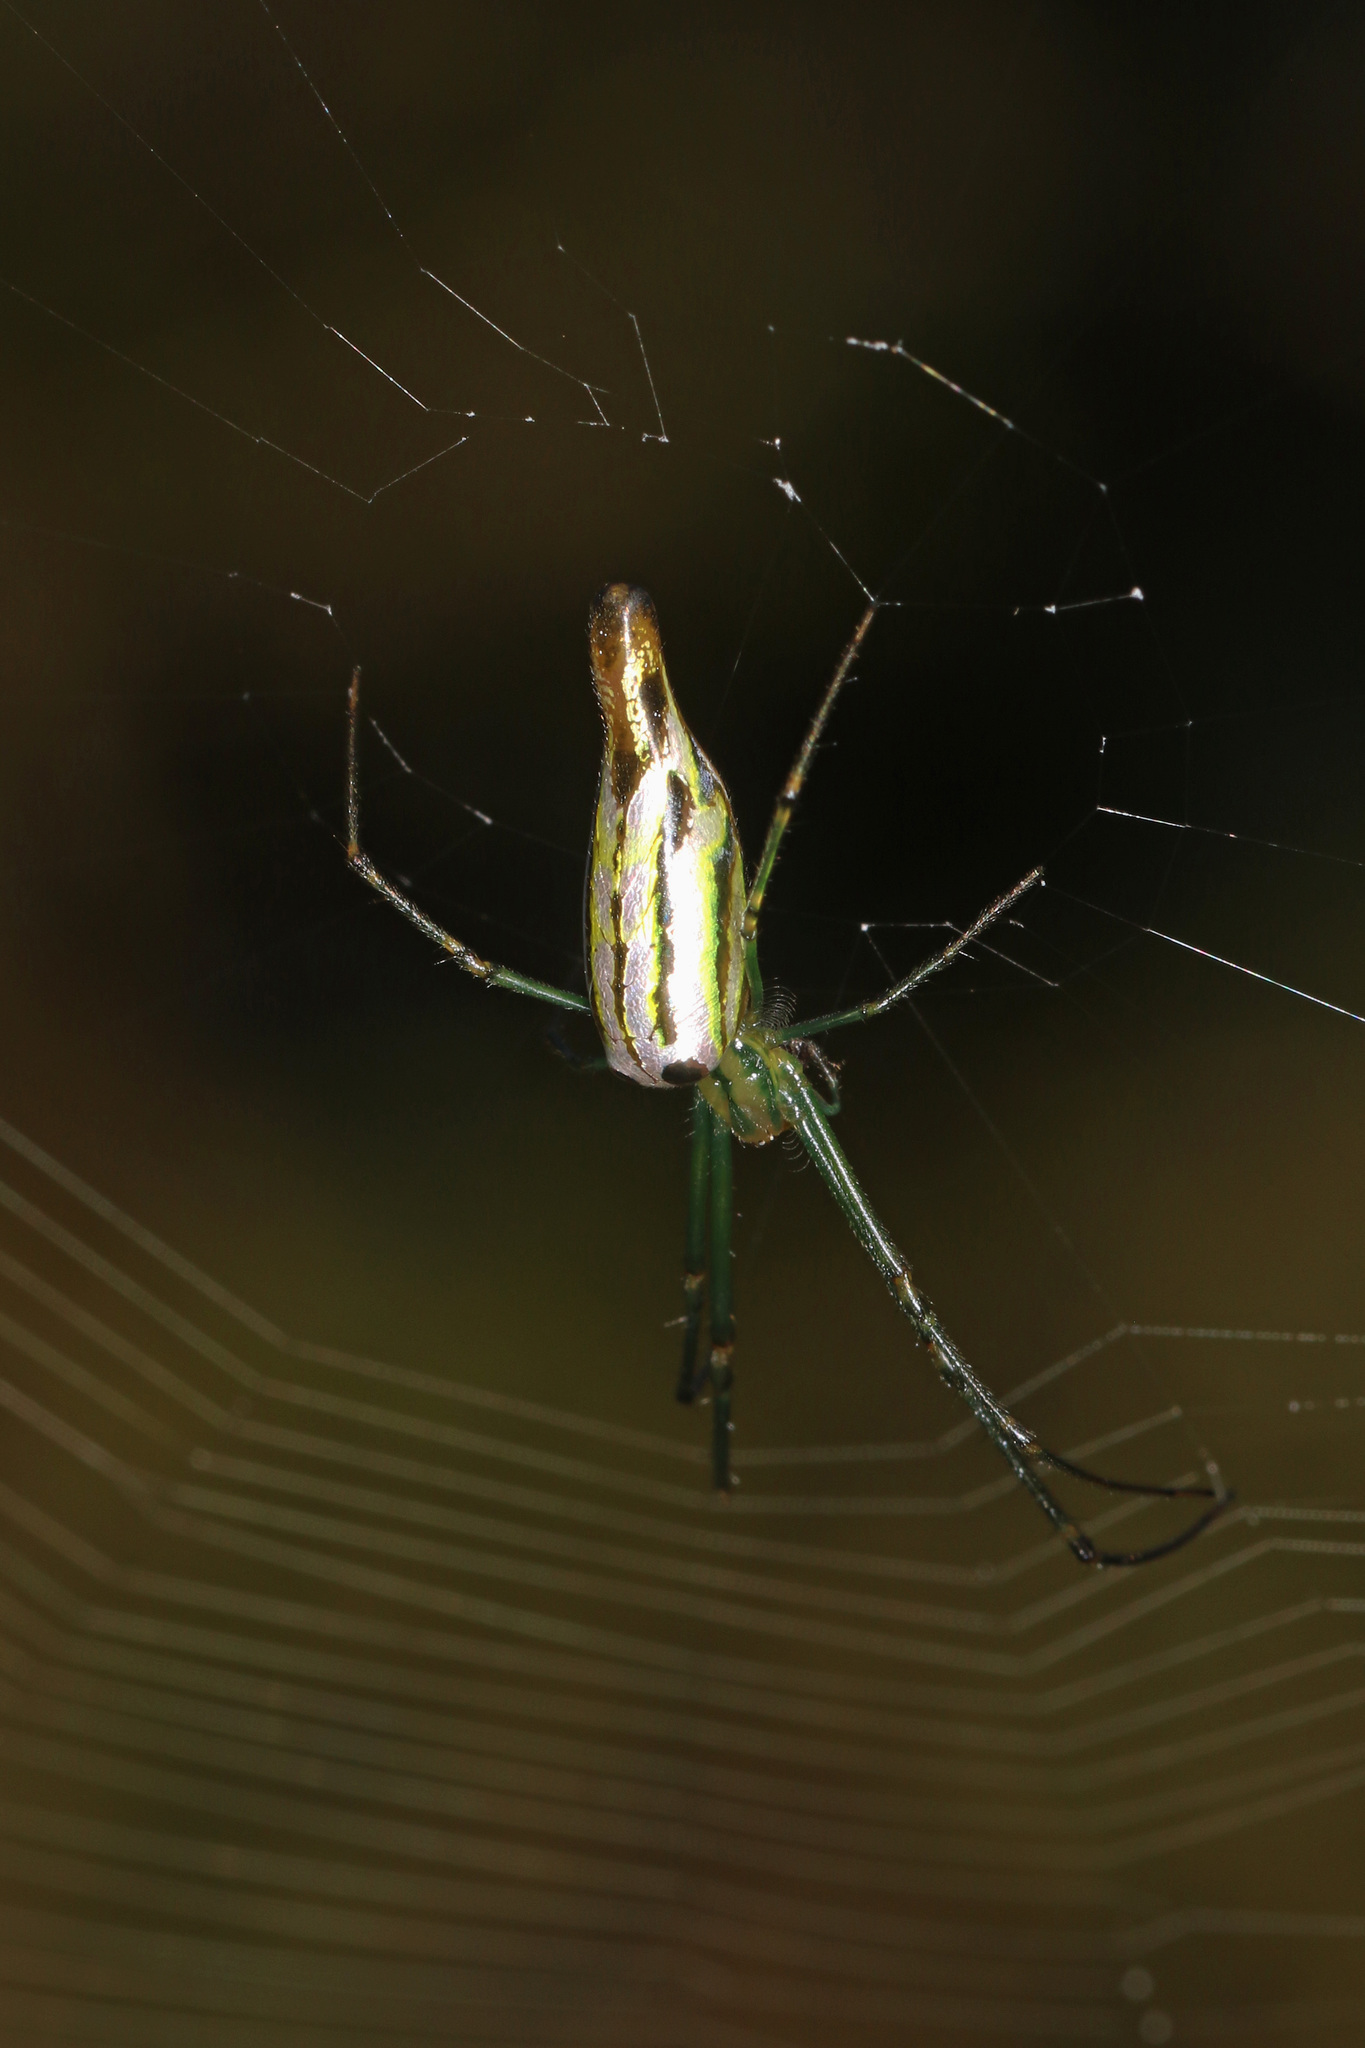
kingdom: Animalia
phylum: Arthropoda
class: Arachnida
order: Araneae
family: Tetragnathidae
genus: Leucauge
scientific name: Leucauge kibonotensis
